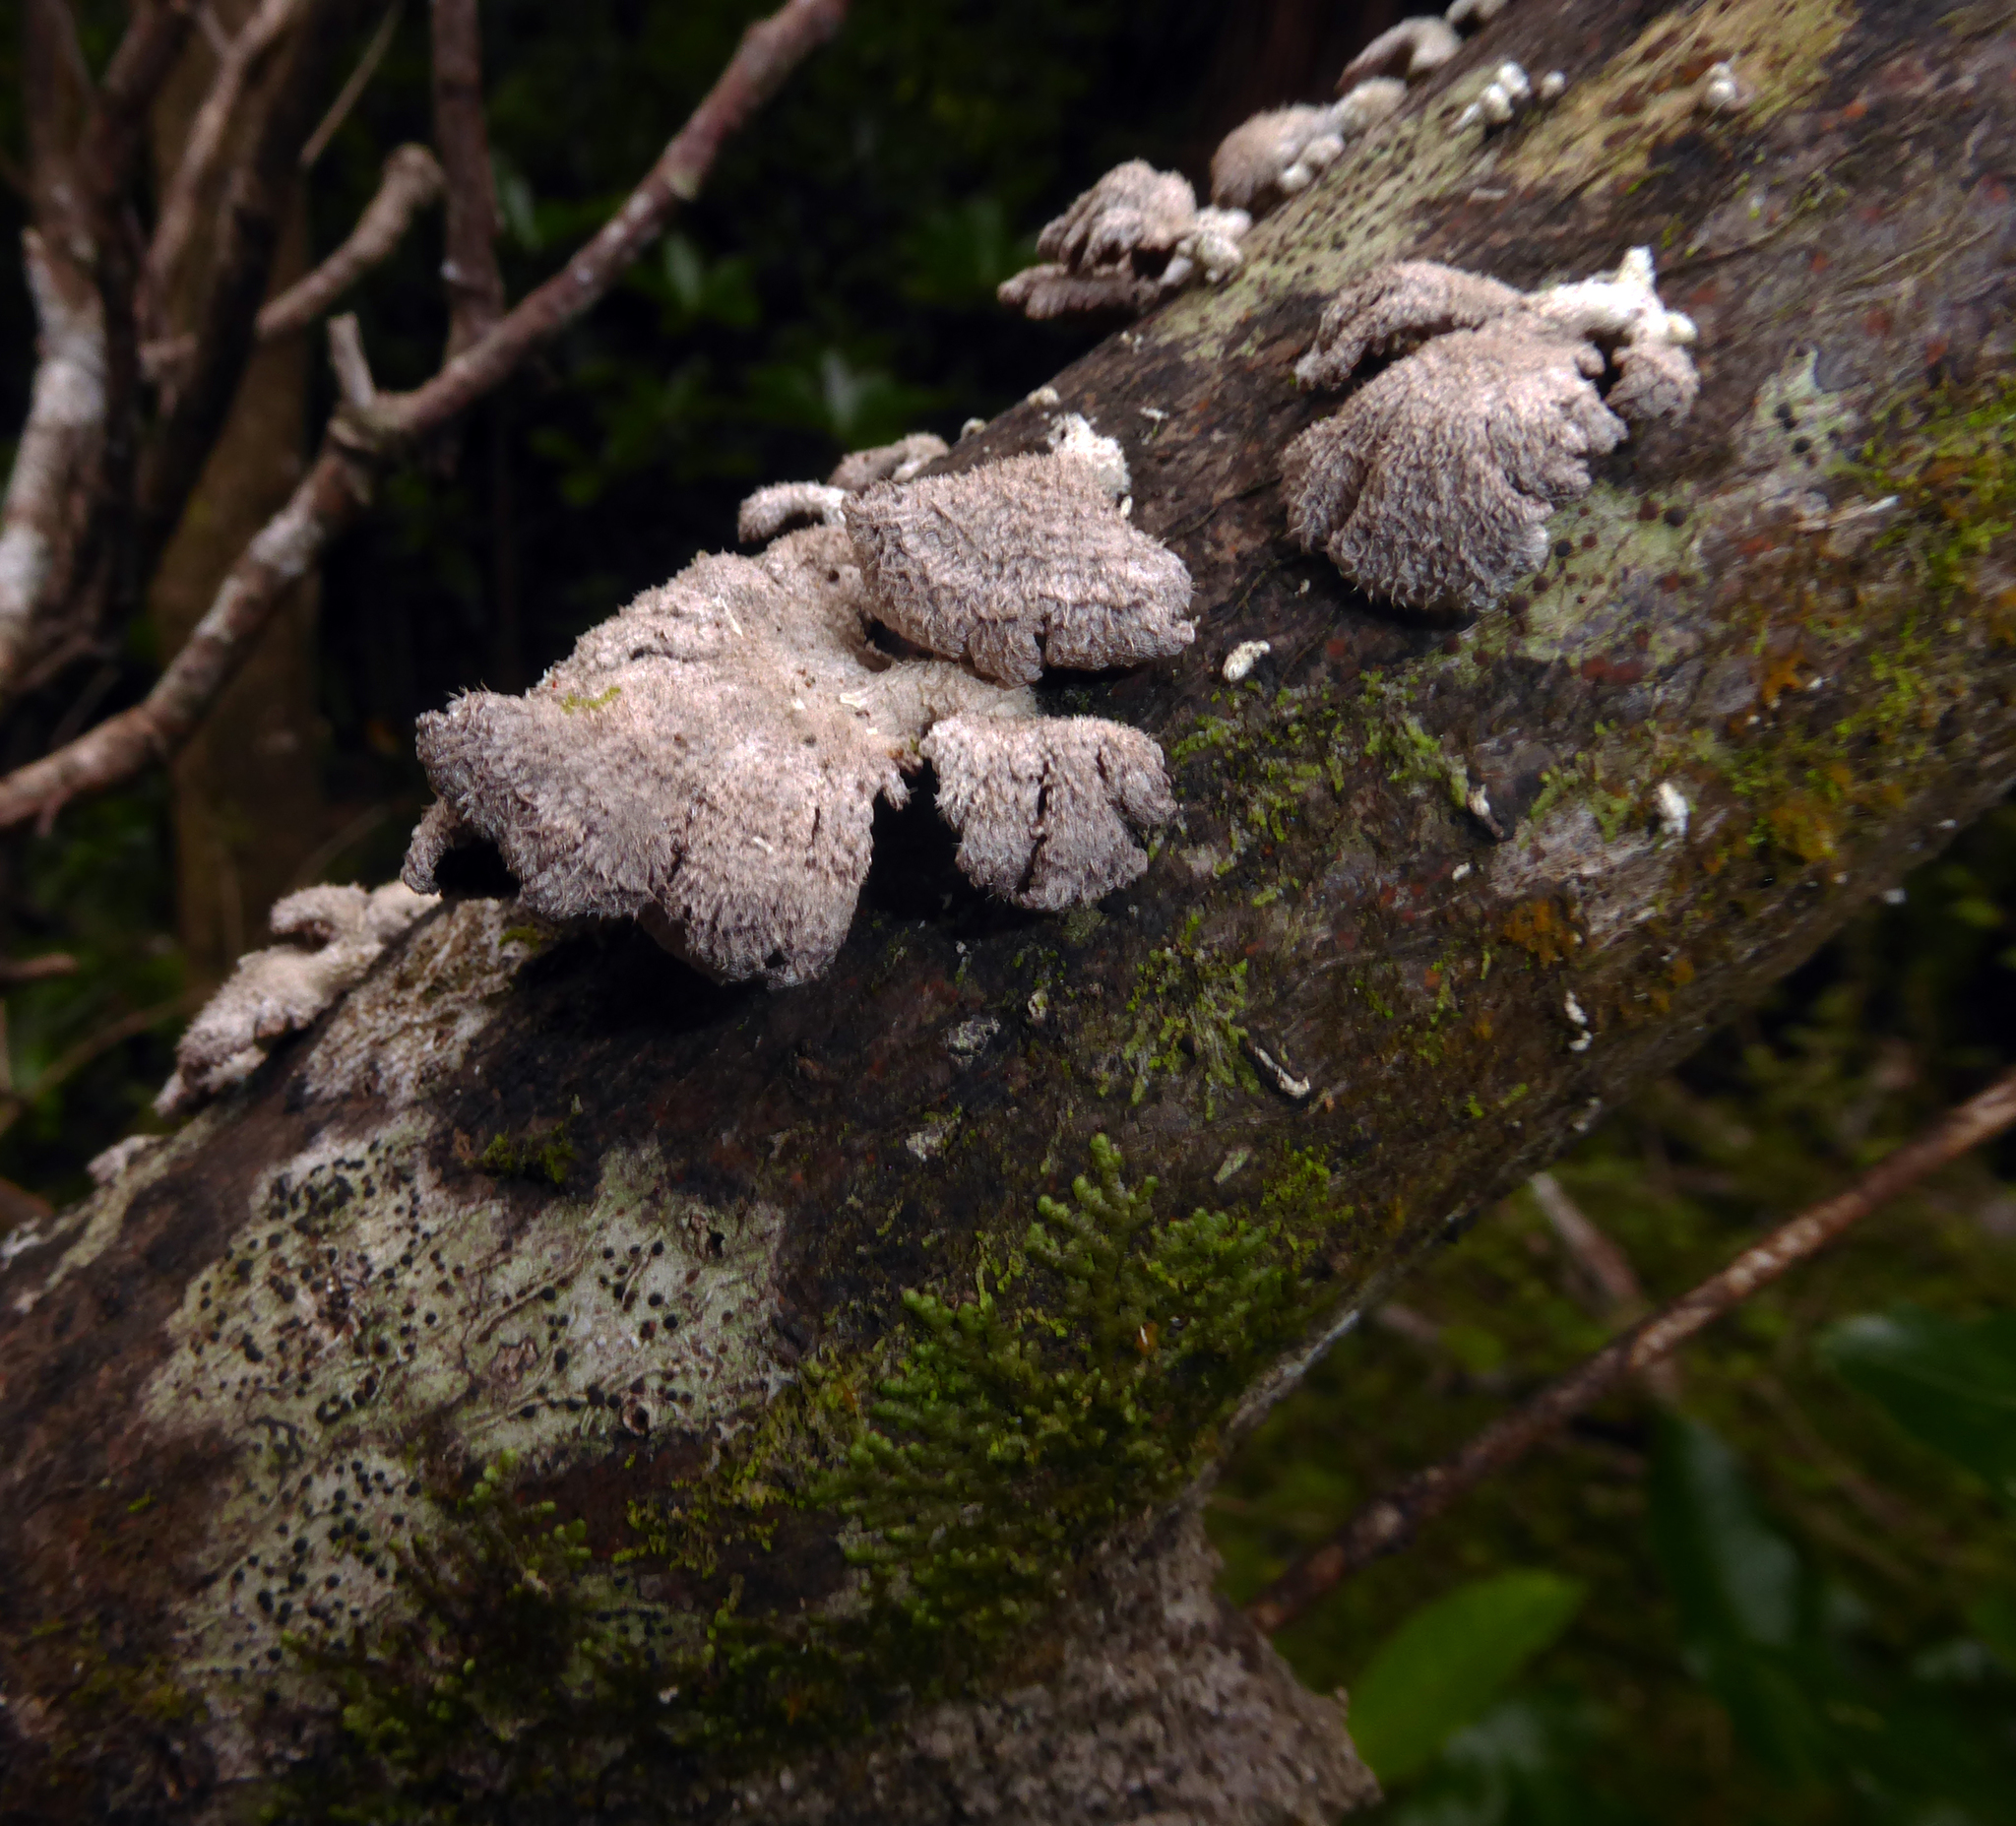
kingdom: Fungi
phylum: Basidiomycota
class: Agaricomycetes
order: Agaricales
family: Schizophyllaceae
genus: Schizophyllum
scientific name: Schizophyllum commune
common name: Common porecrust
